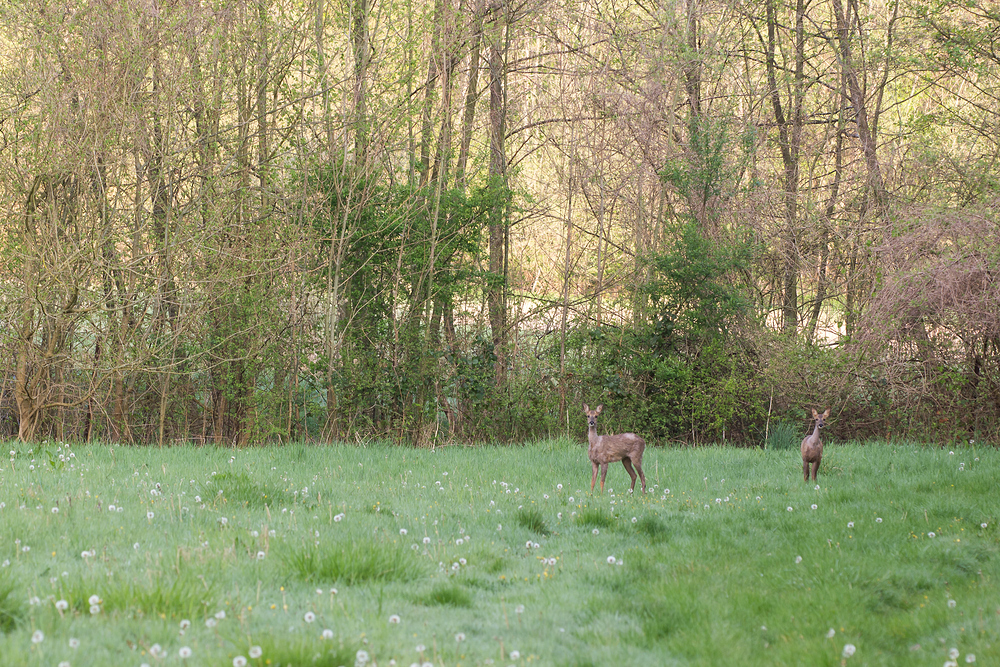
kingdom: Animalia
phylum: Chordata
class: Mammalia
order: Artiodactyla
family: Cervidae
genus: Capreolus
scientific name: Capreolus capreolus
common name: Western roe deer
